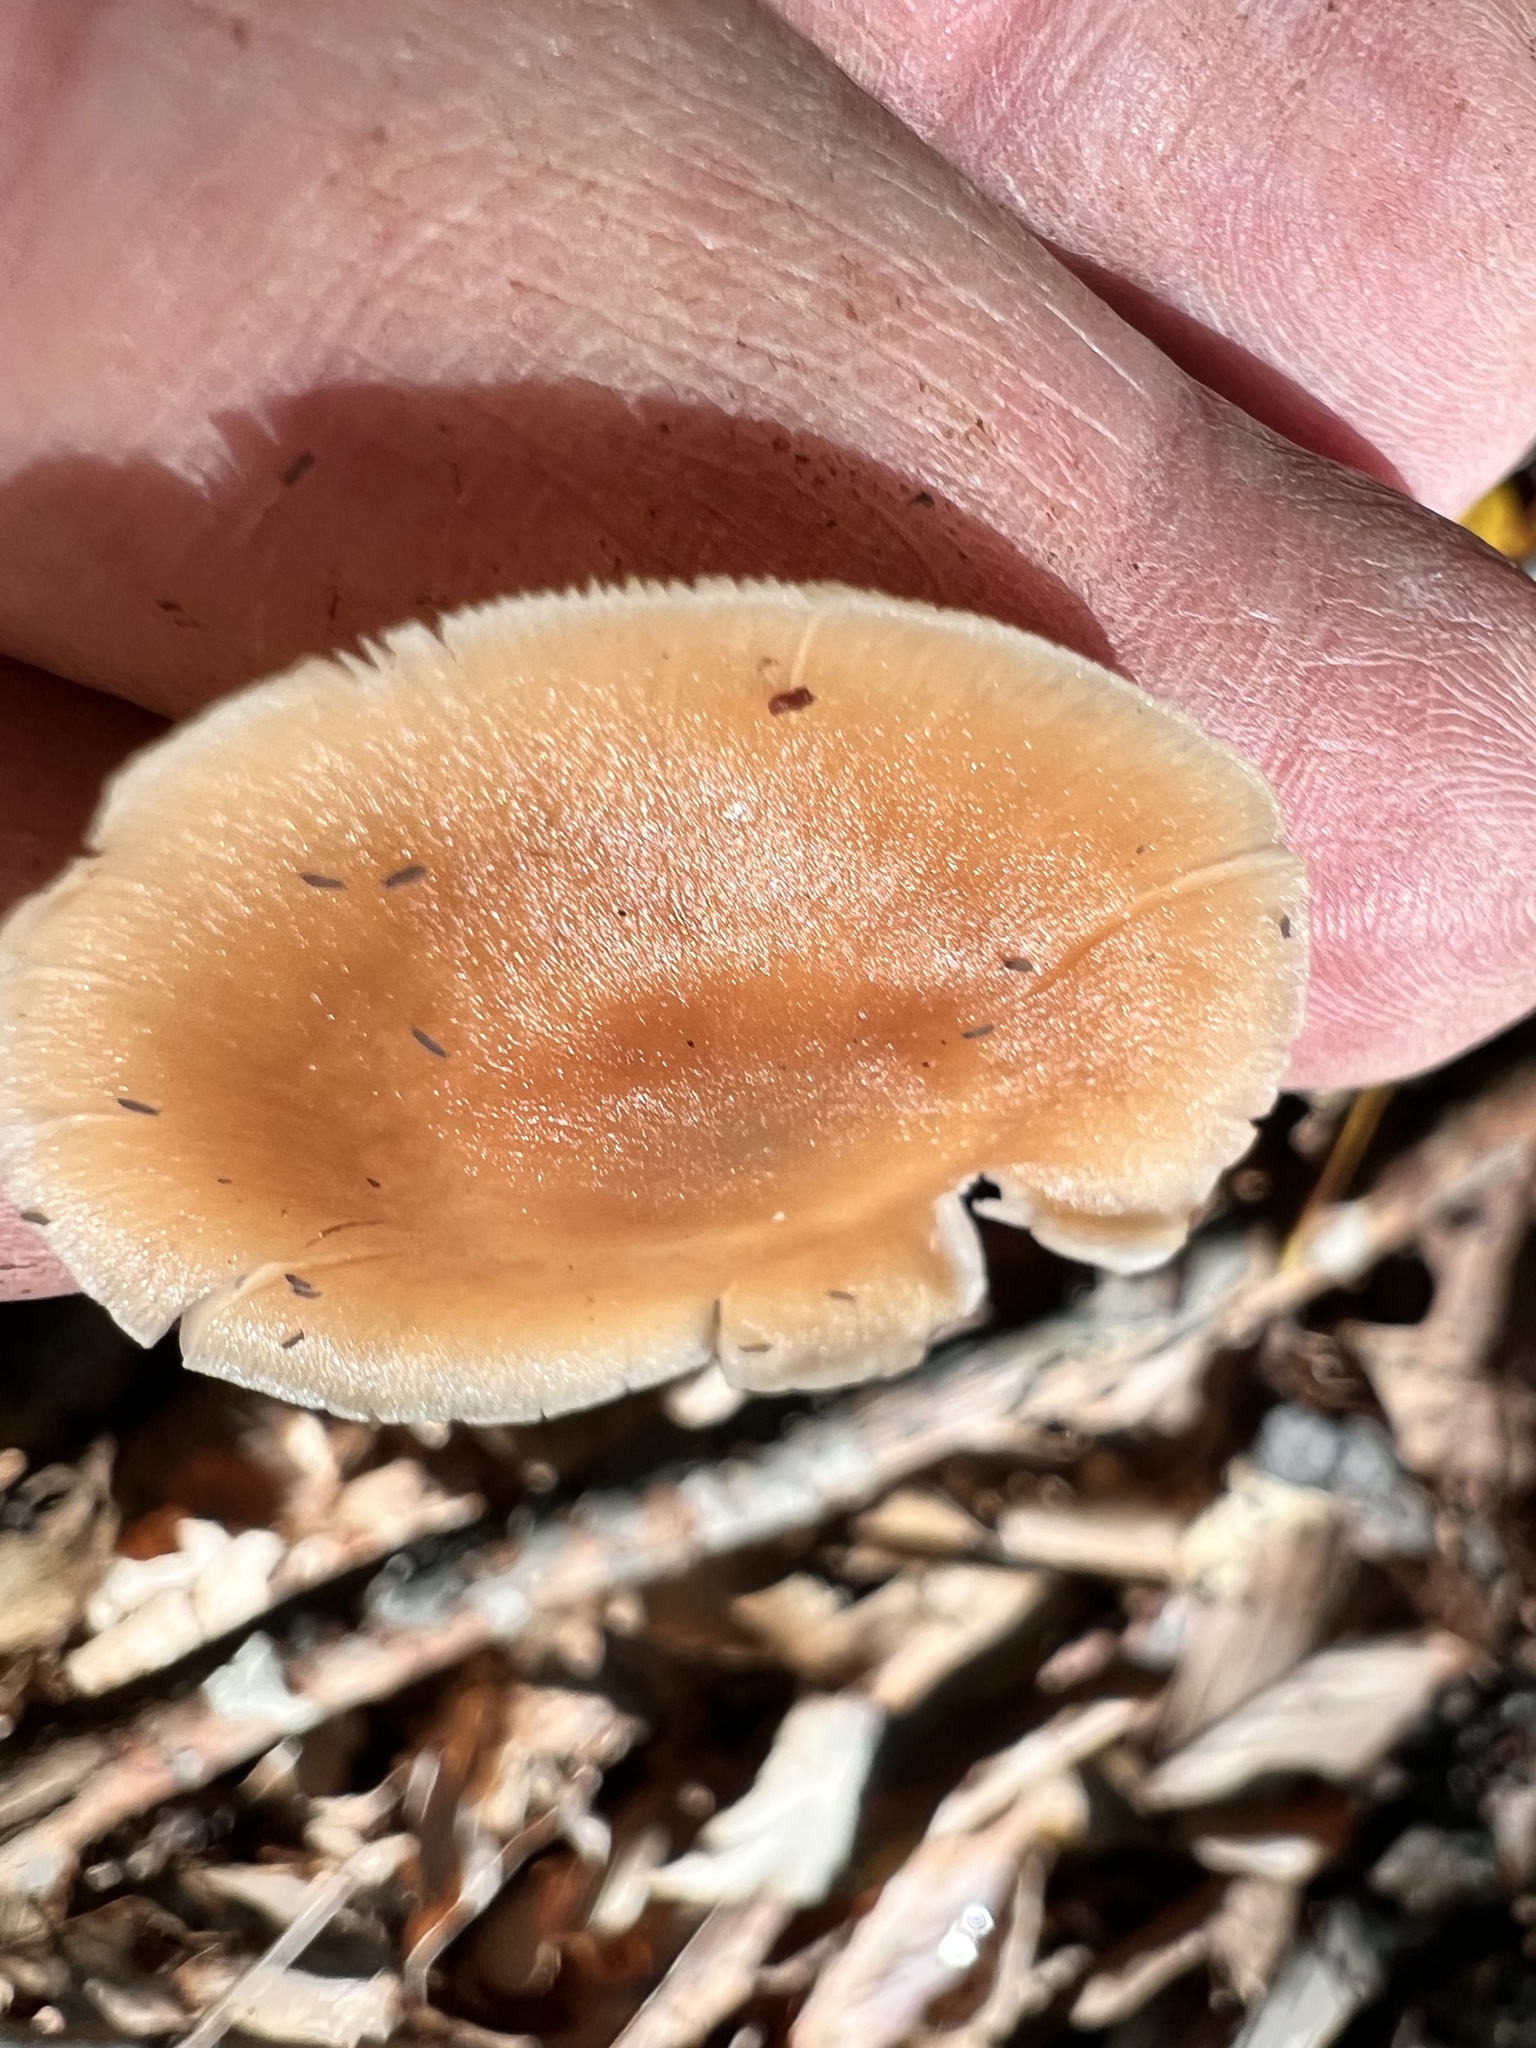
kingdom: Fungi
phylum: Basidiomycota
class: Agaricomycetes
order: Agaricales
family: Omphalotaceae
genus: Rhodocollybia
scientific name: Rhodocollybia butyracea
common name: Butter cap
